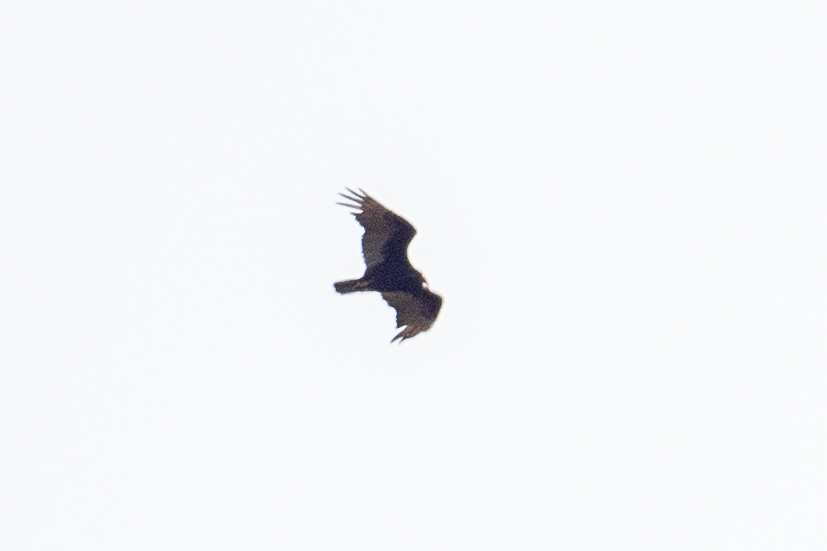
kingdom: Animalia
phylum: Chordata
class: Aves
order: Accipitriformes
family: Cathartidae
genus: Cathartes
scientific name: Cathartes aura
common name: Turkey vulture
